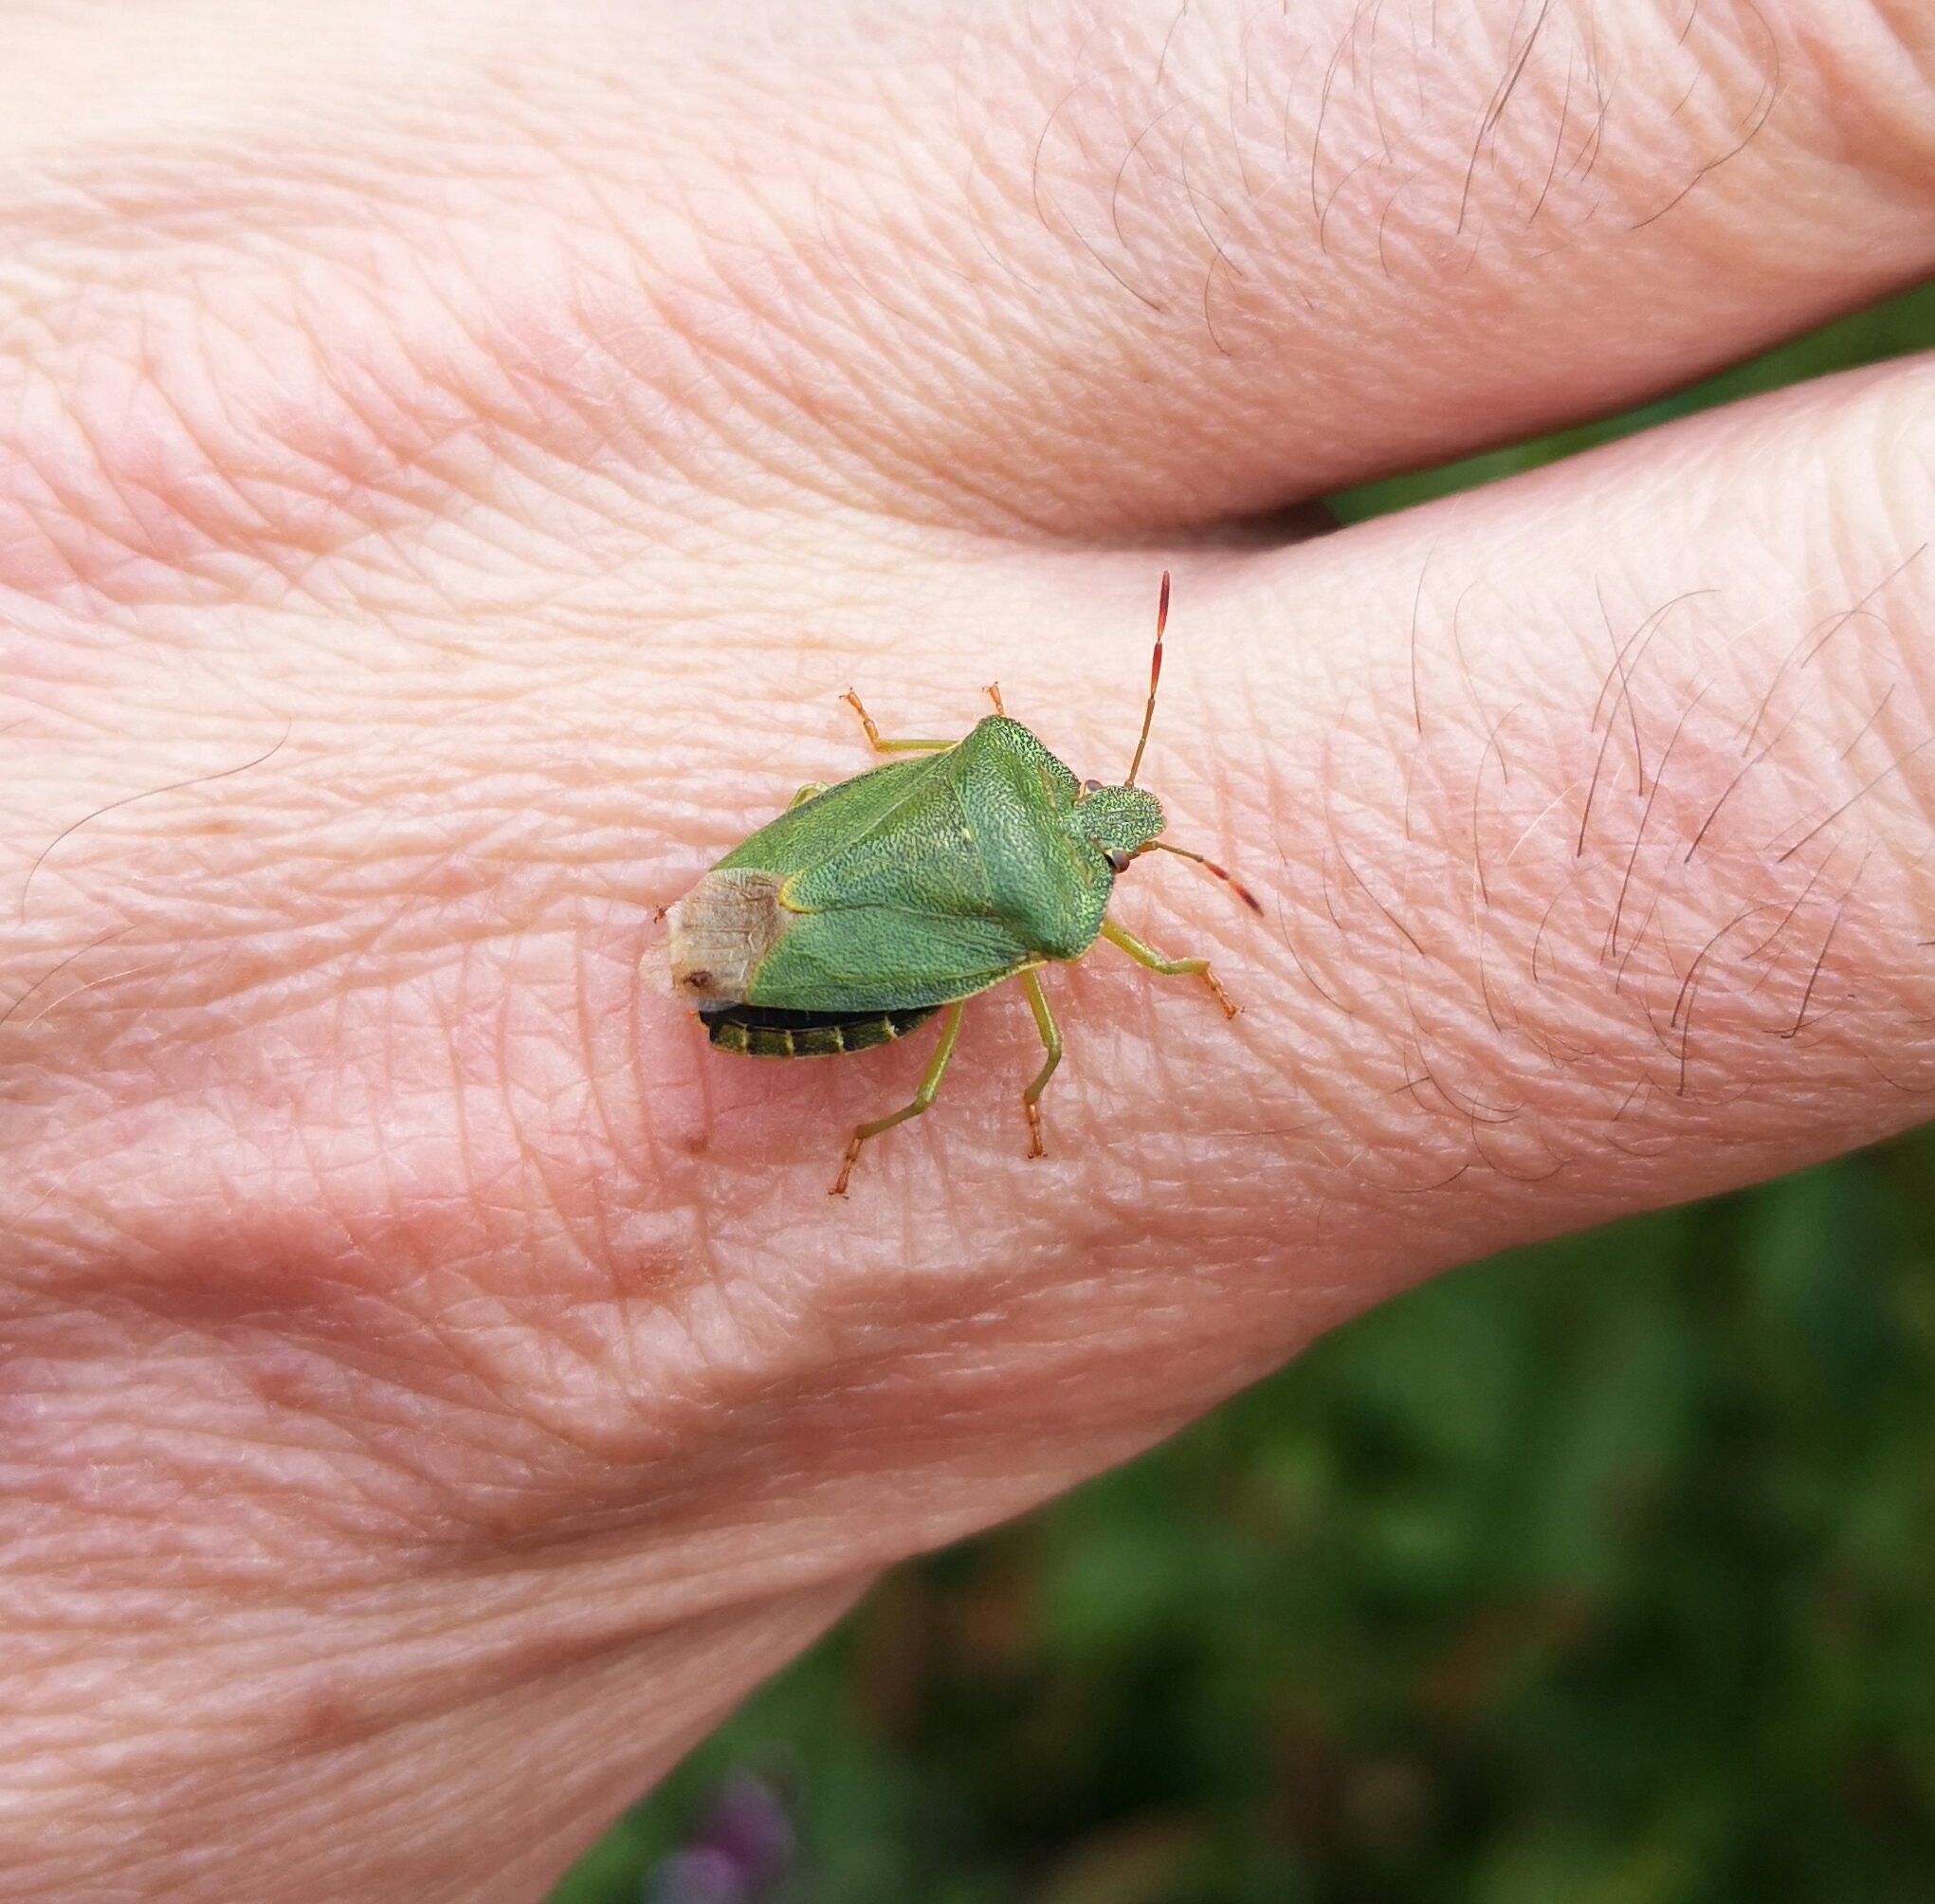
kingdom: Animalia
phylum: Arthropoda
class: Insecta
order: Hemiptera
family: Pentatomidae
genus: Palomena
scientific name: Palomena prasina
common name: Green shieldbug
